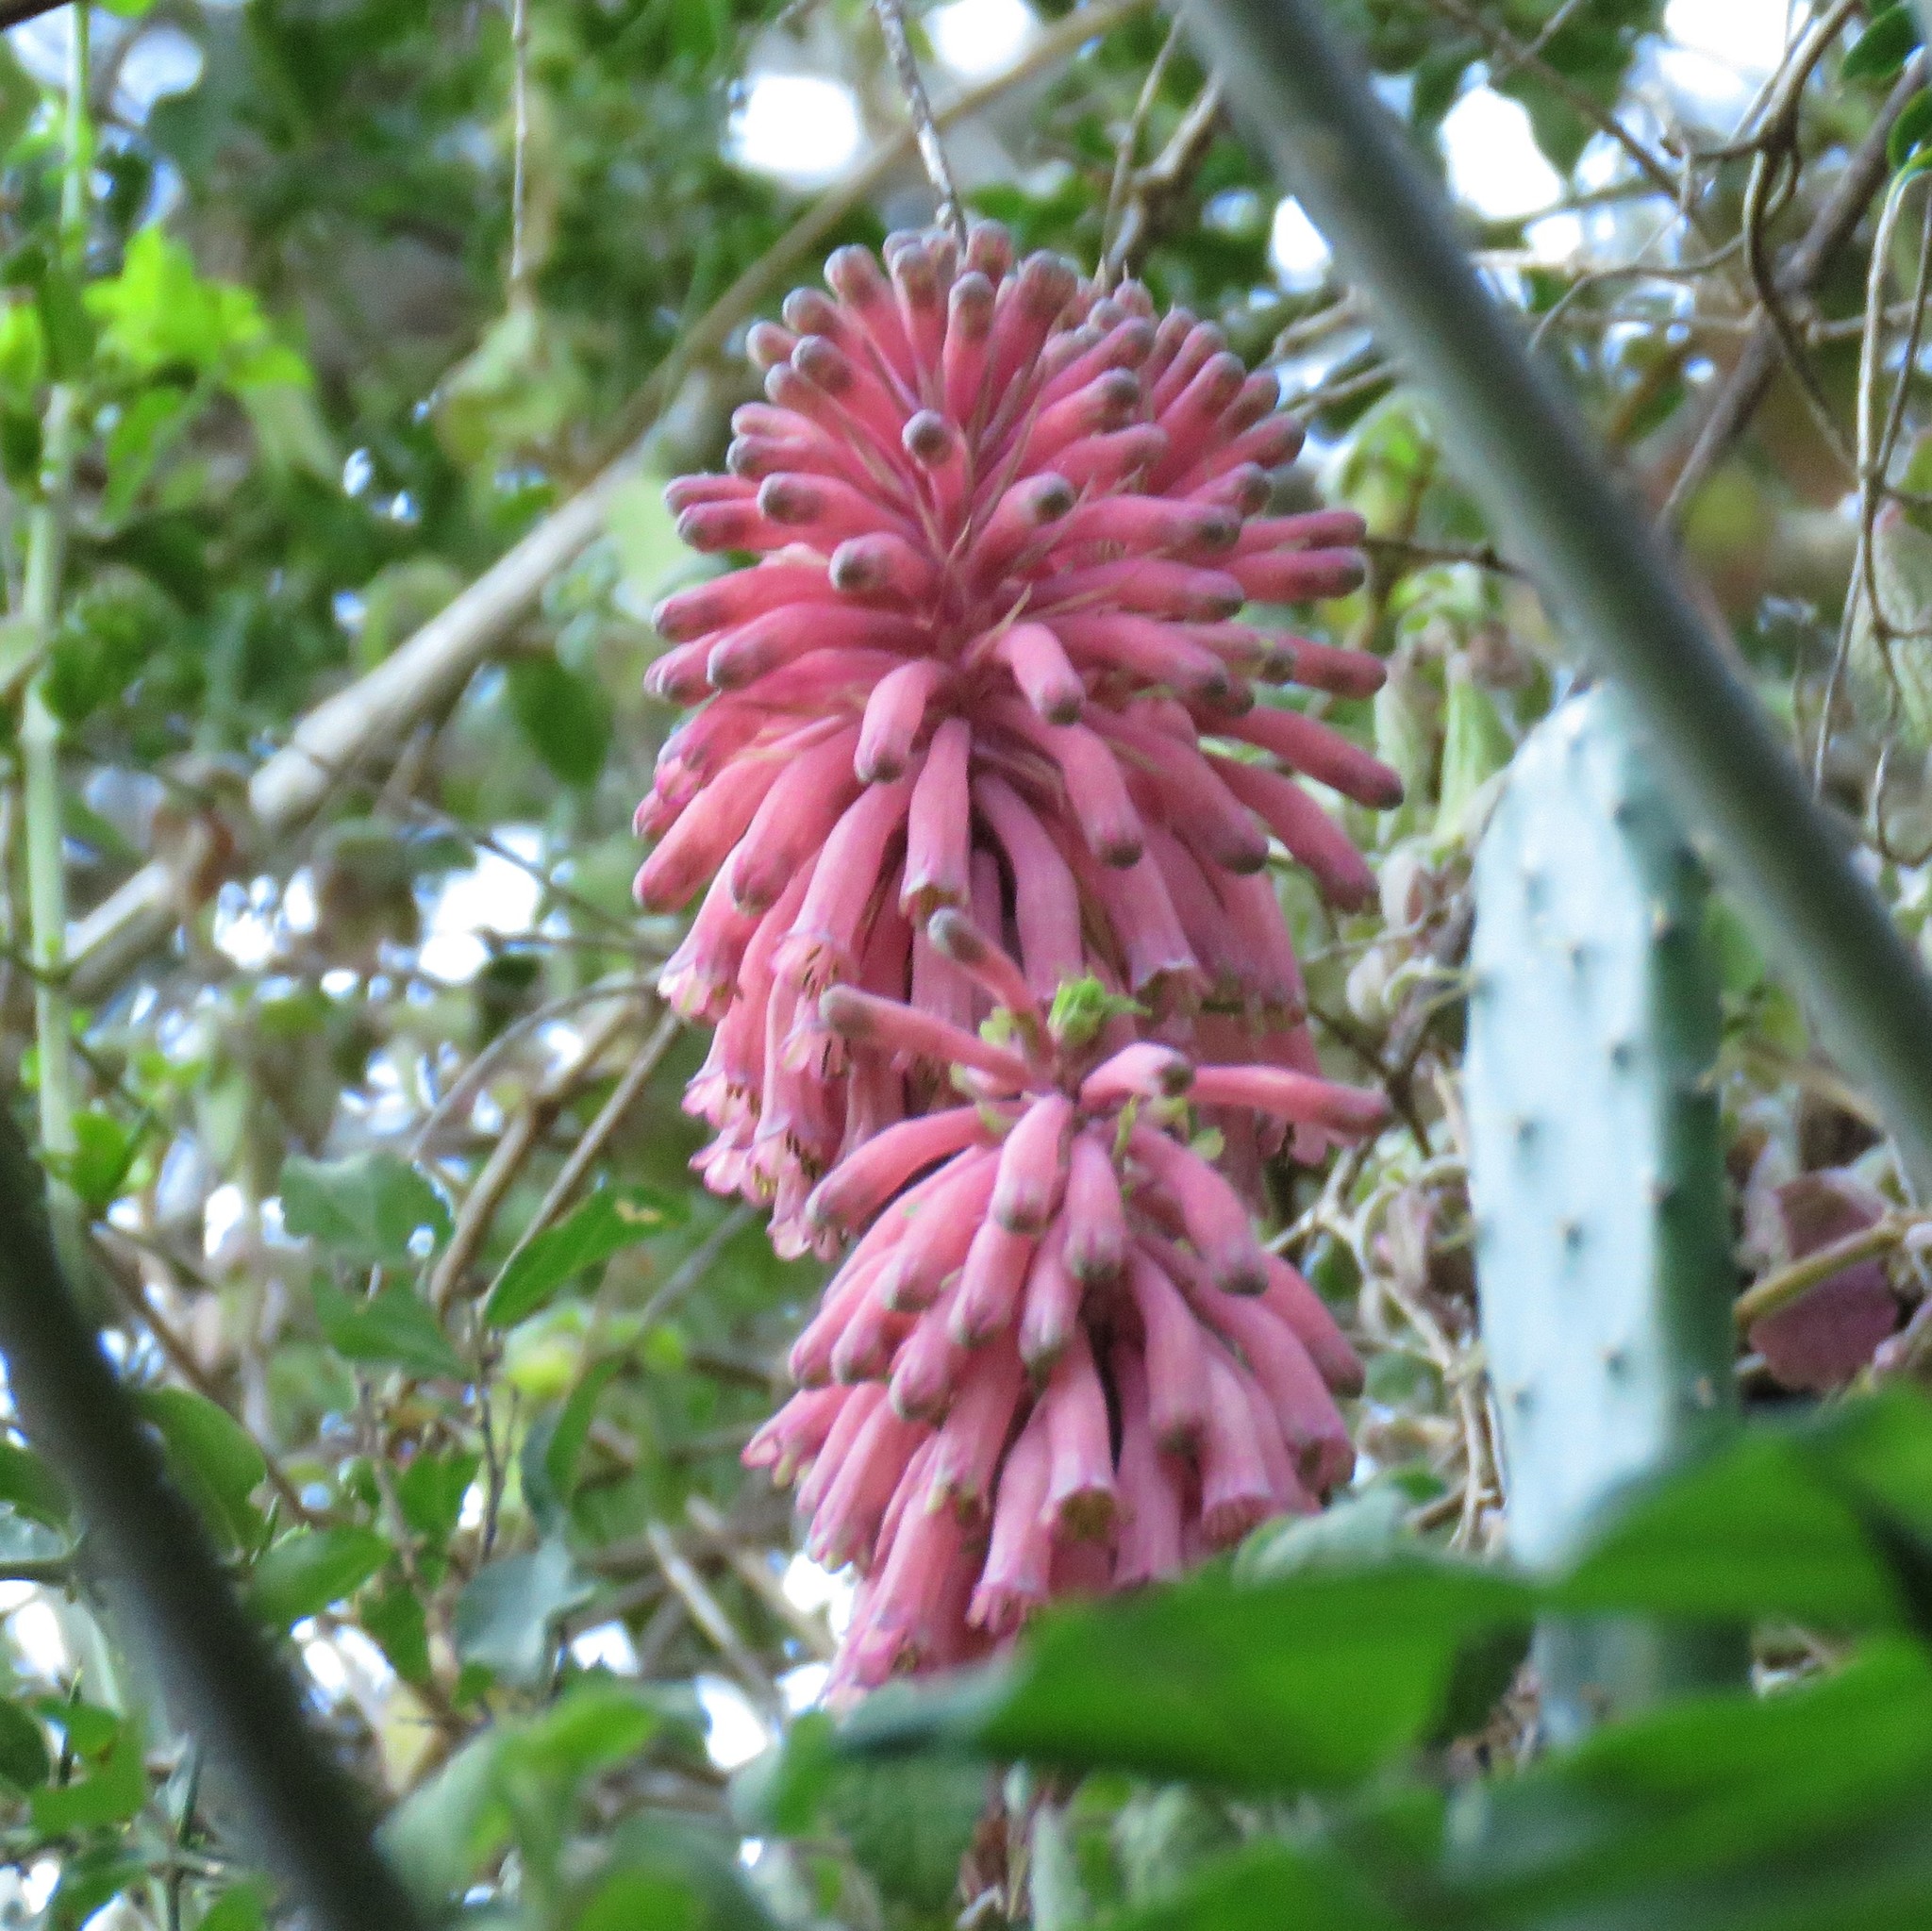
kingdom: Plantae
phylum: Tracheophyta
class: Liliopsida
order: Asparagales
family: Asparagaceae
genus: Veltheimia
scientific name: Veltheimia bracteata
